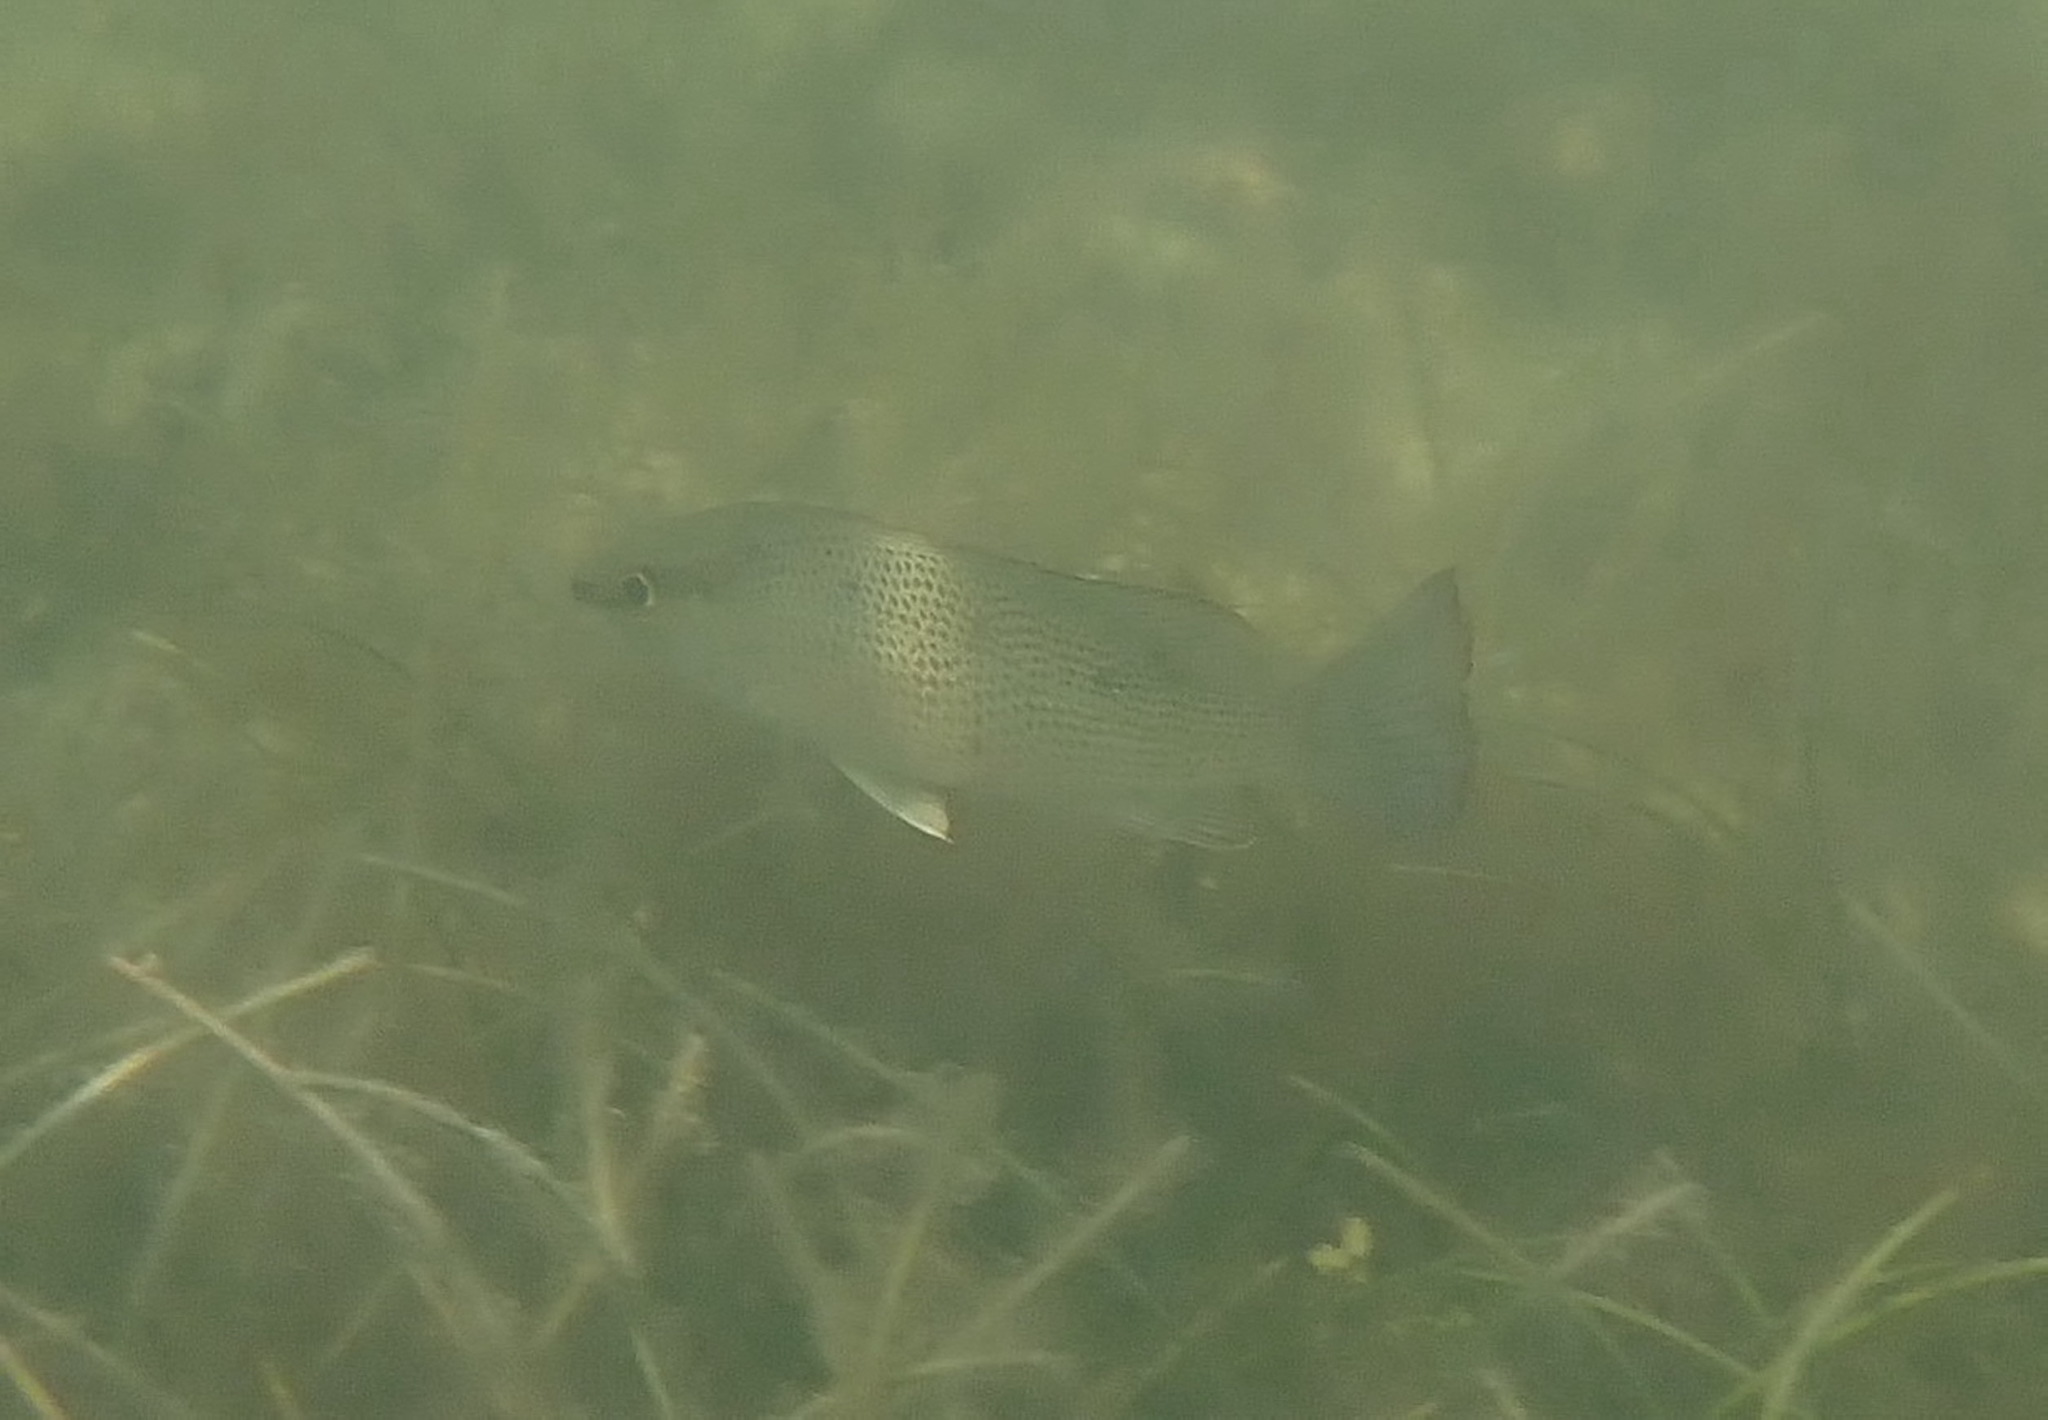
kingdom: Animalia
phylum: Chordata
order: Perciformes
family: Lutjanidae
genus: Lutjanus
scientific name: Lutjanus griseus
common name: Gray snapper
